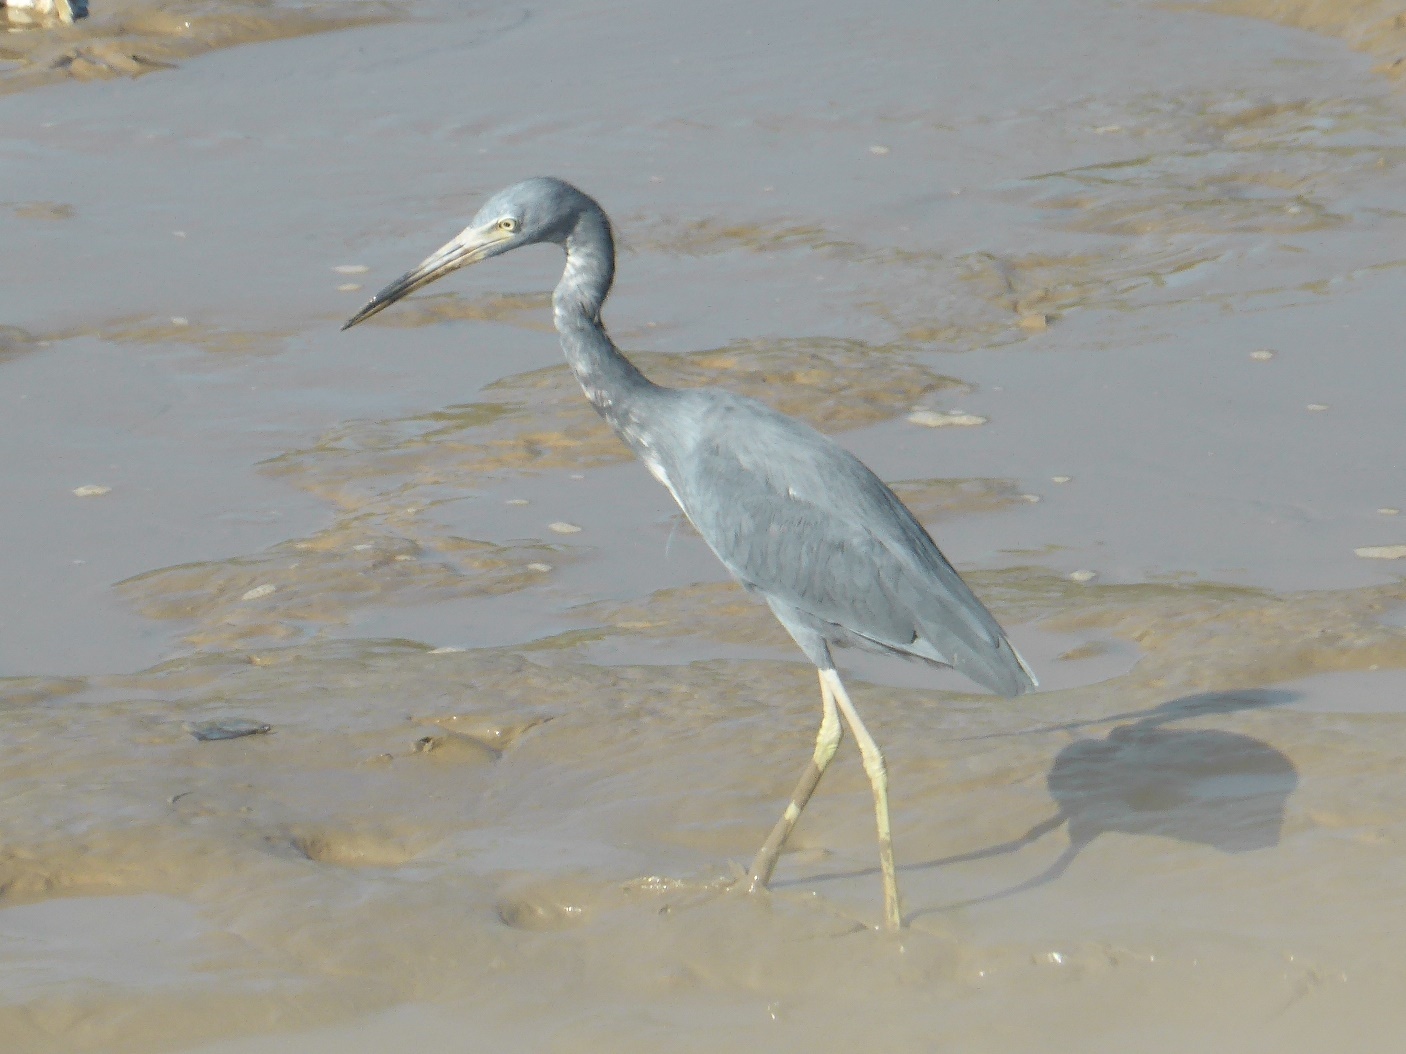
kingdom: Animalia
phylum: Chordata
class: Aves
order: Pelecaniformes
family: Ardeidae
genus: Egretta
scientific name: Egretta caerulea
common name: Little blue heron
